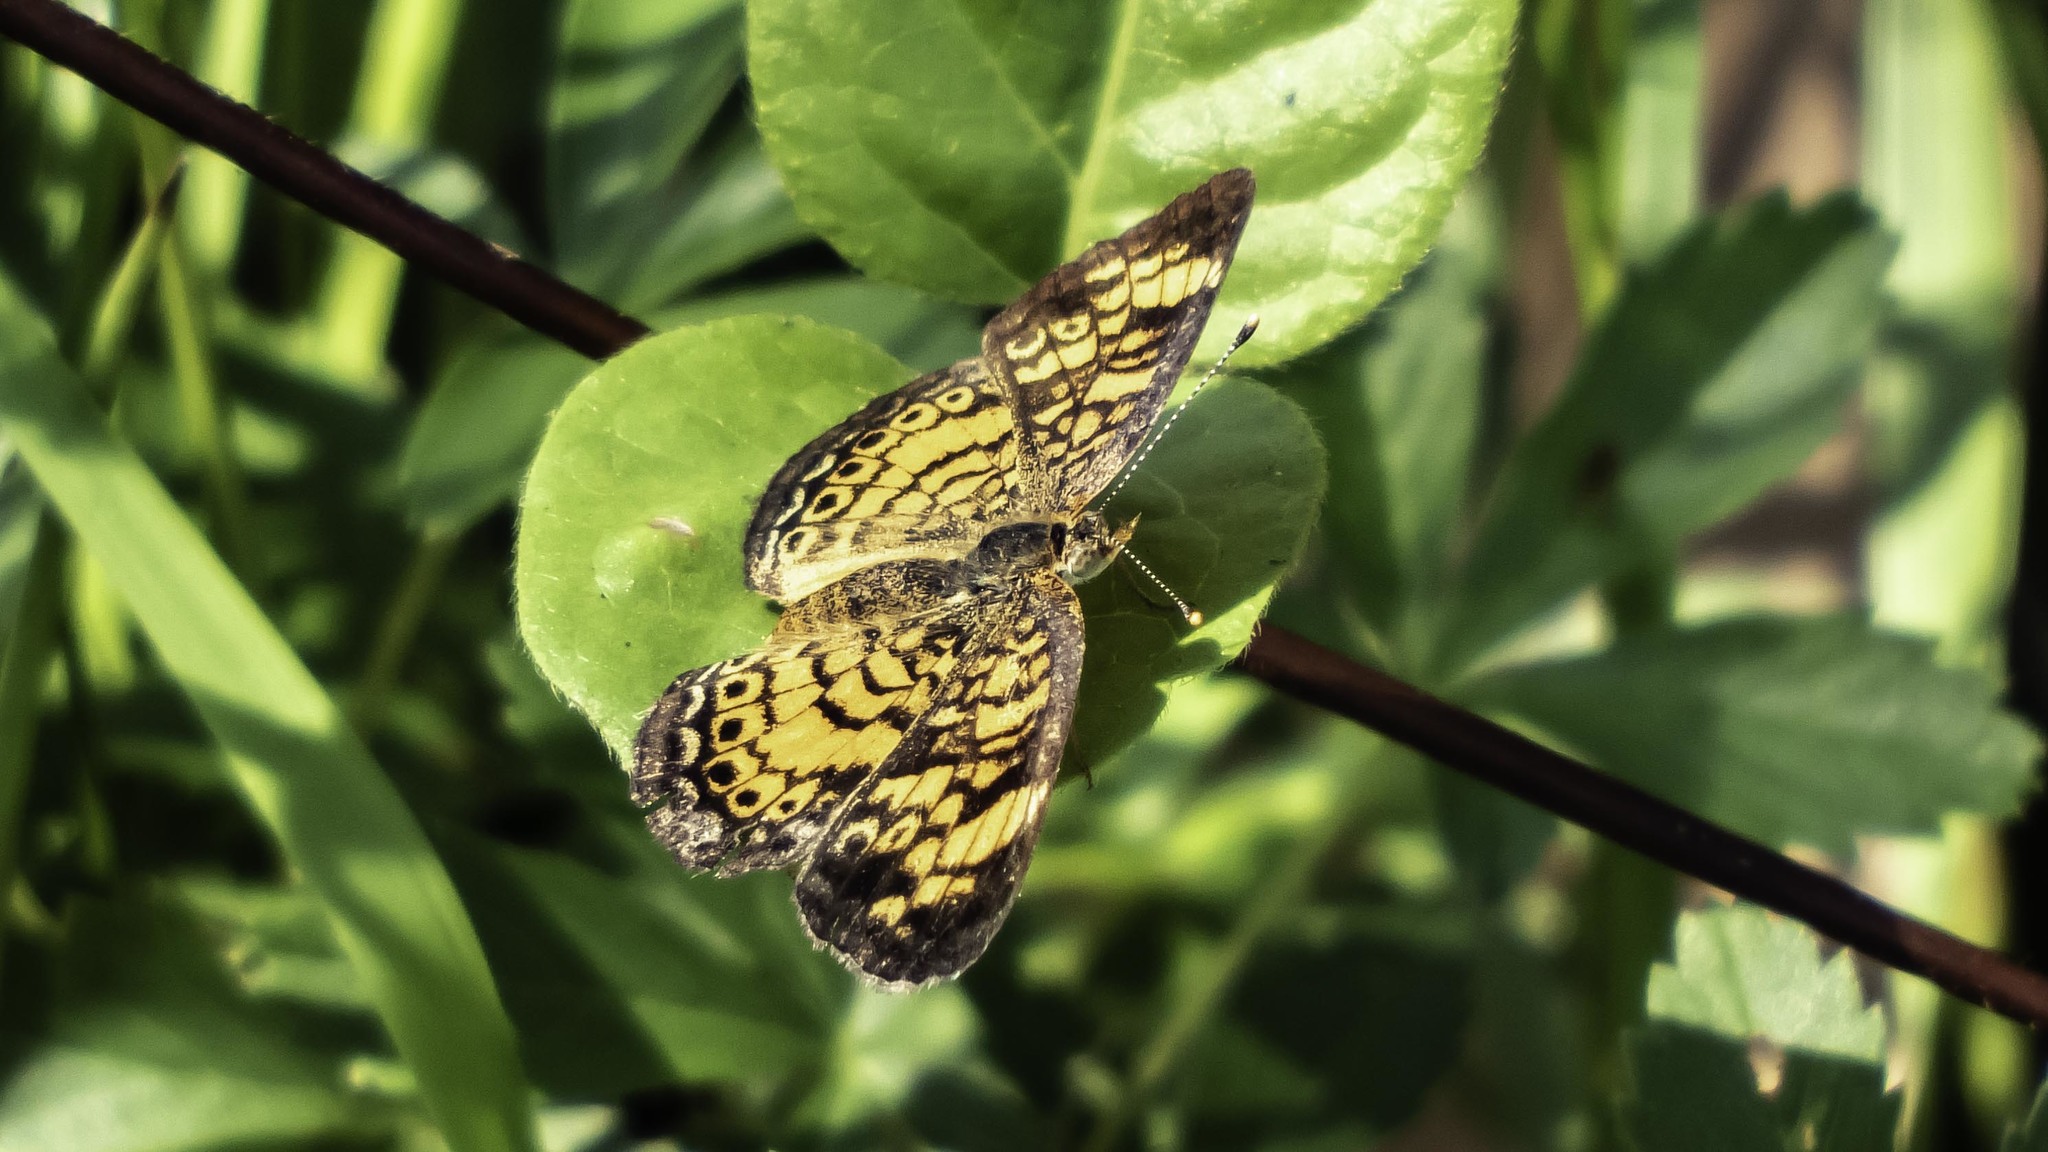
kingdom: Animalia
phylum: Arthropoda
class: Insecta
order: Lepidoptera
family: Nymphalidae
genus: Phyciodes
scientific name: Phyciodes tharos
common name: Pearl crescent
